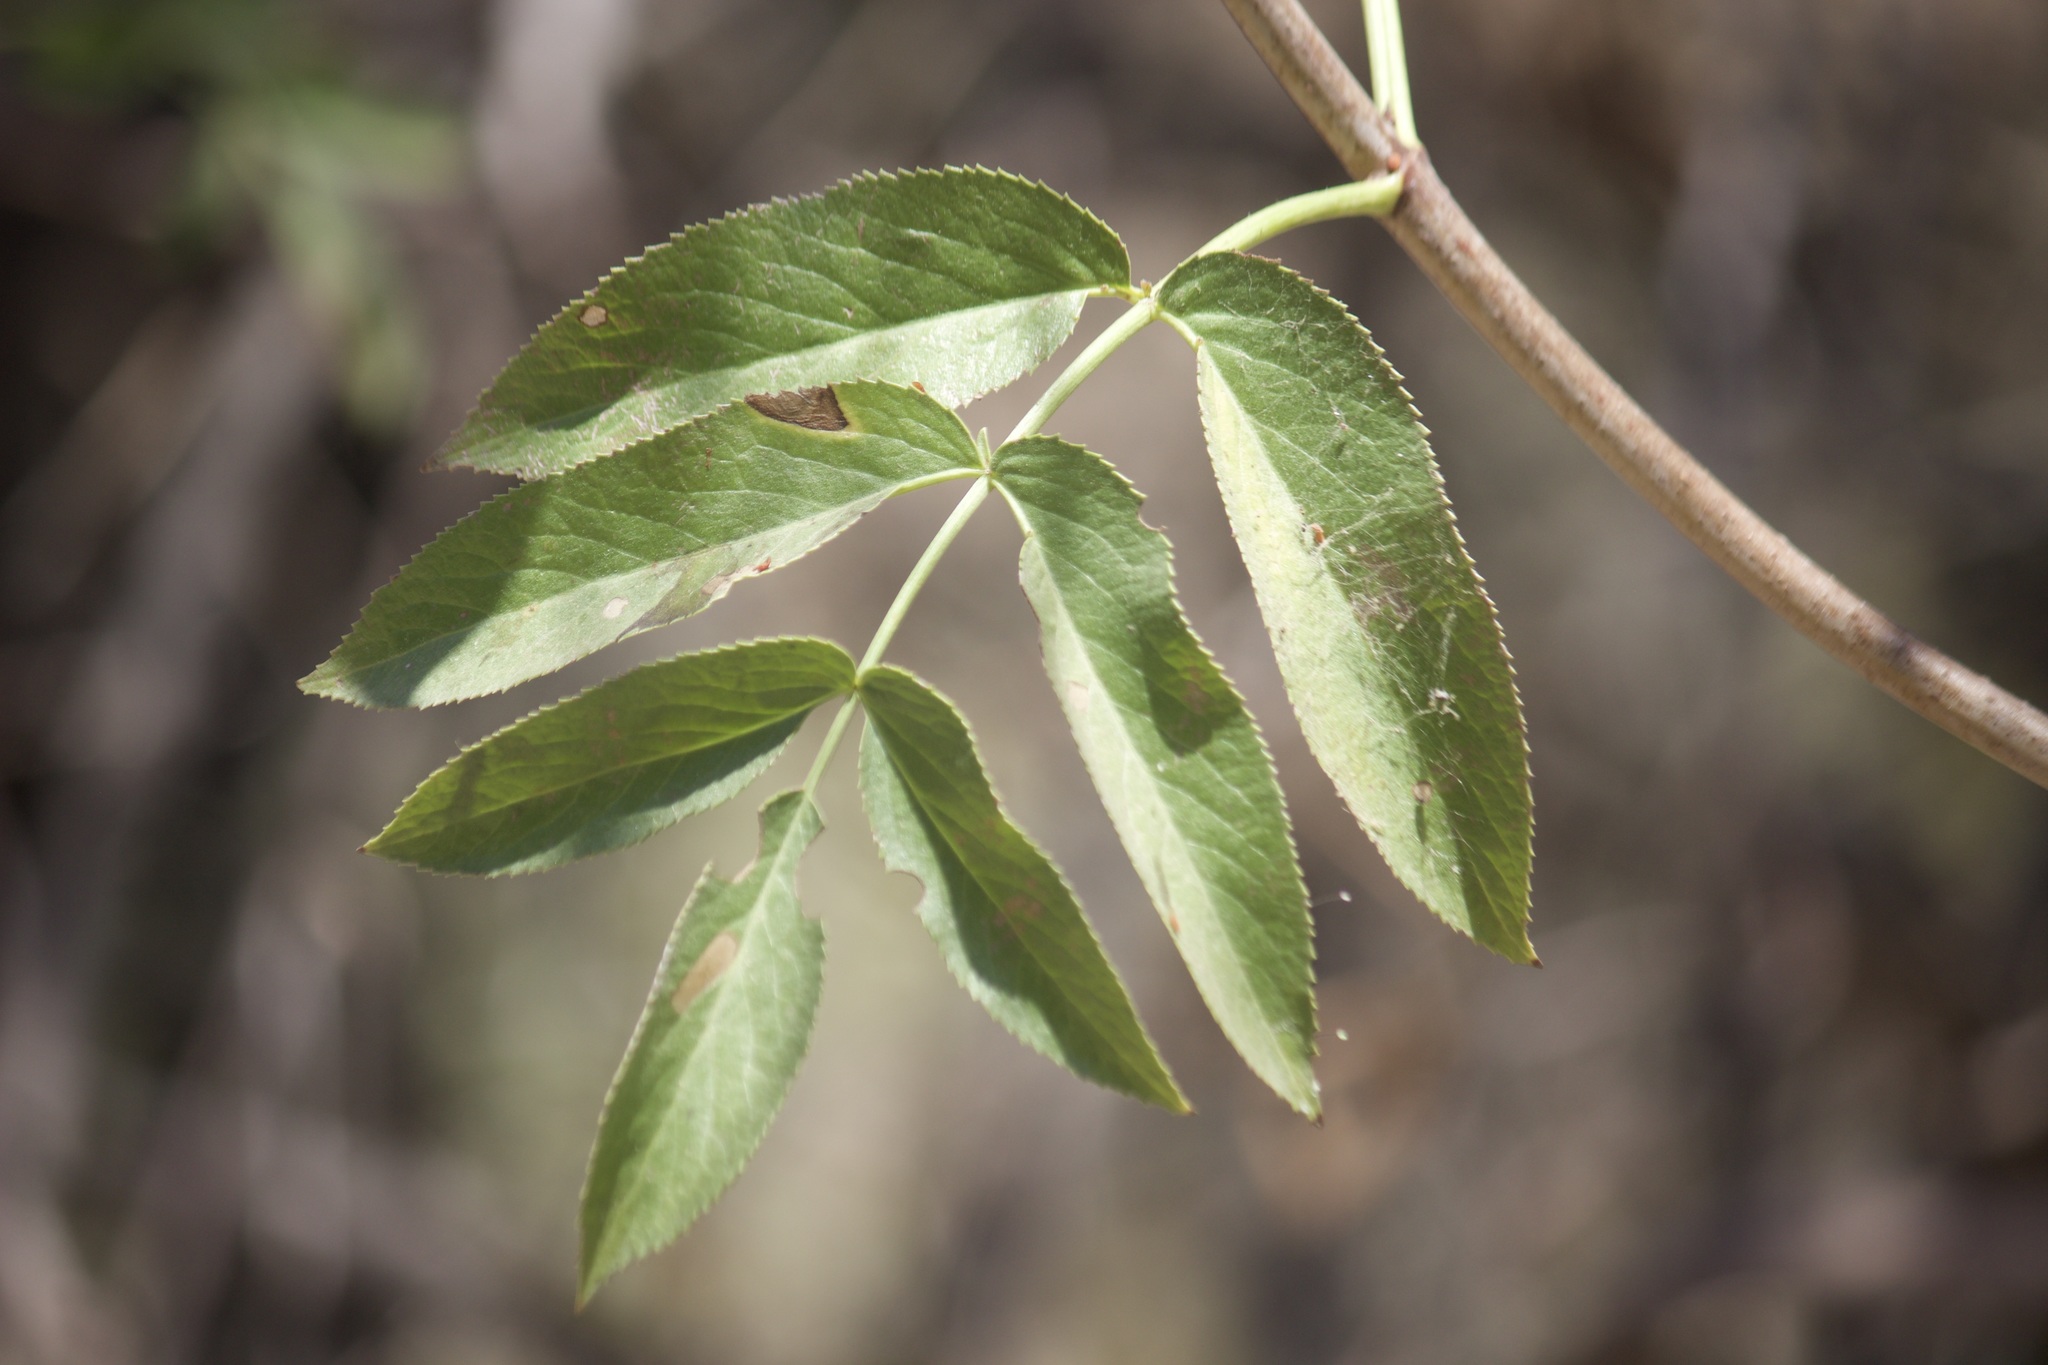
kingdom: Plantae
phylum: Tracheophyta
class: Magnoliopsida
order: Dipsacales
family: Viburnaceae
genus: Sambucus
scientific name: Sambucus cerulea
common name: Blue elder
